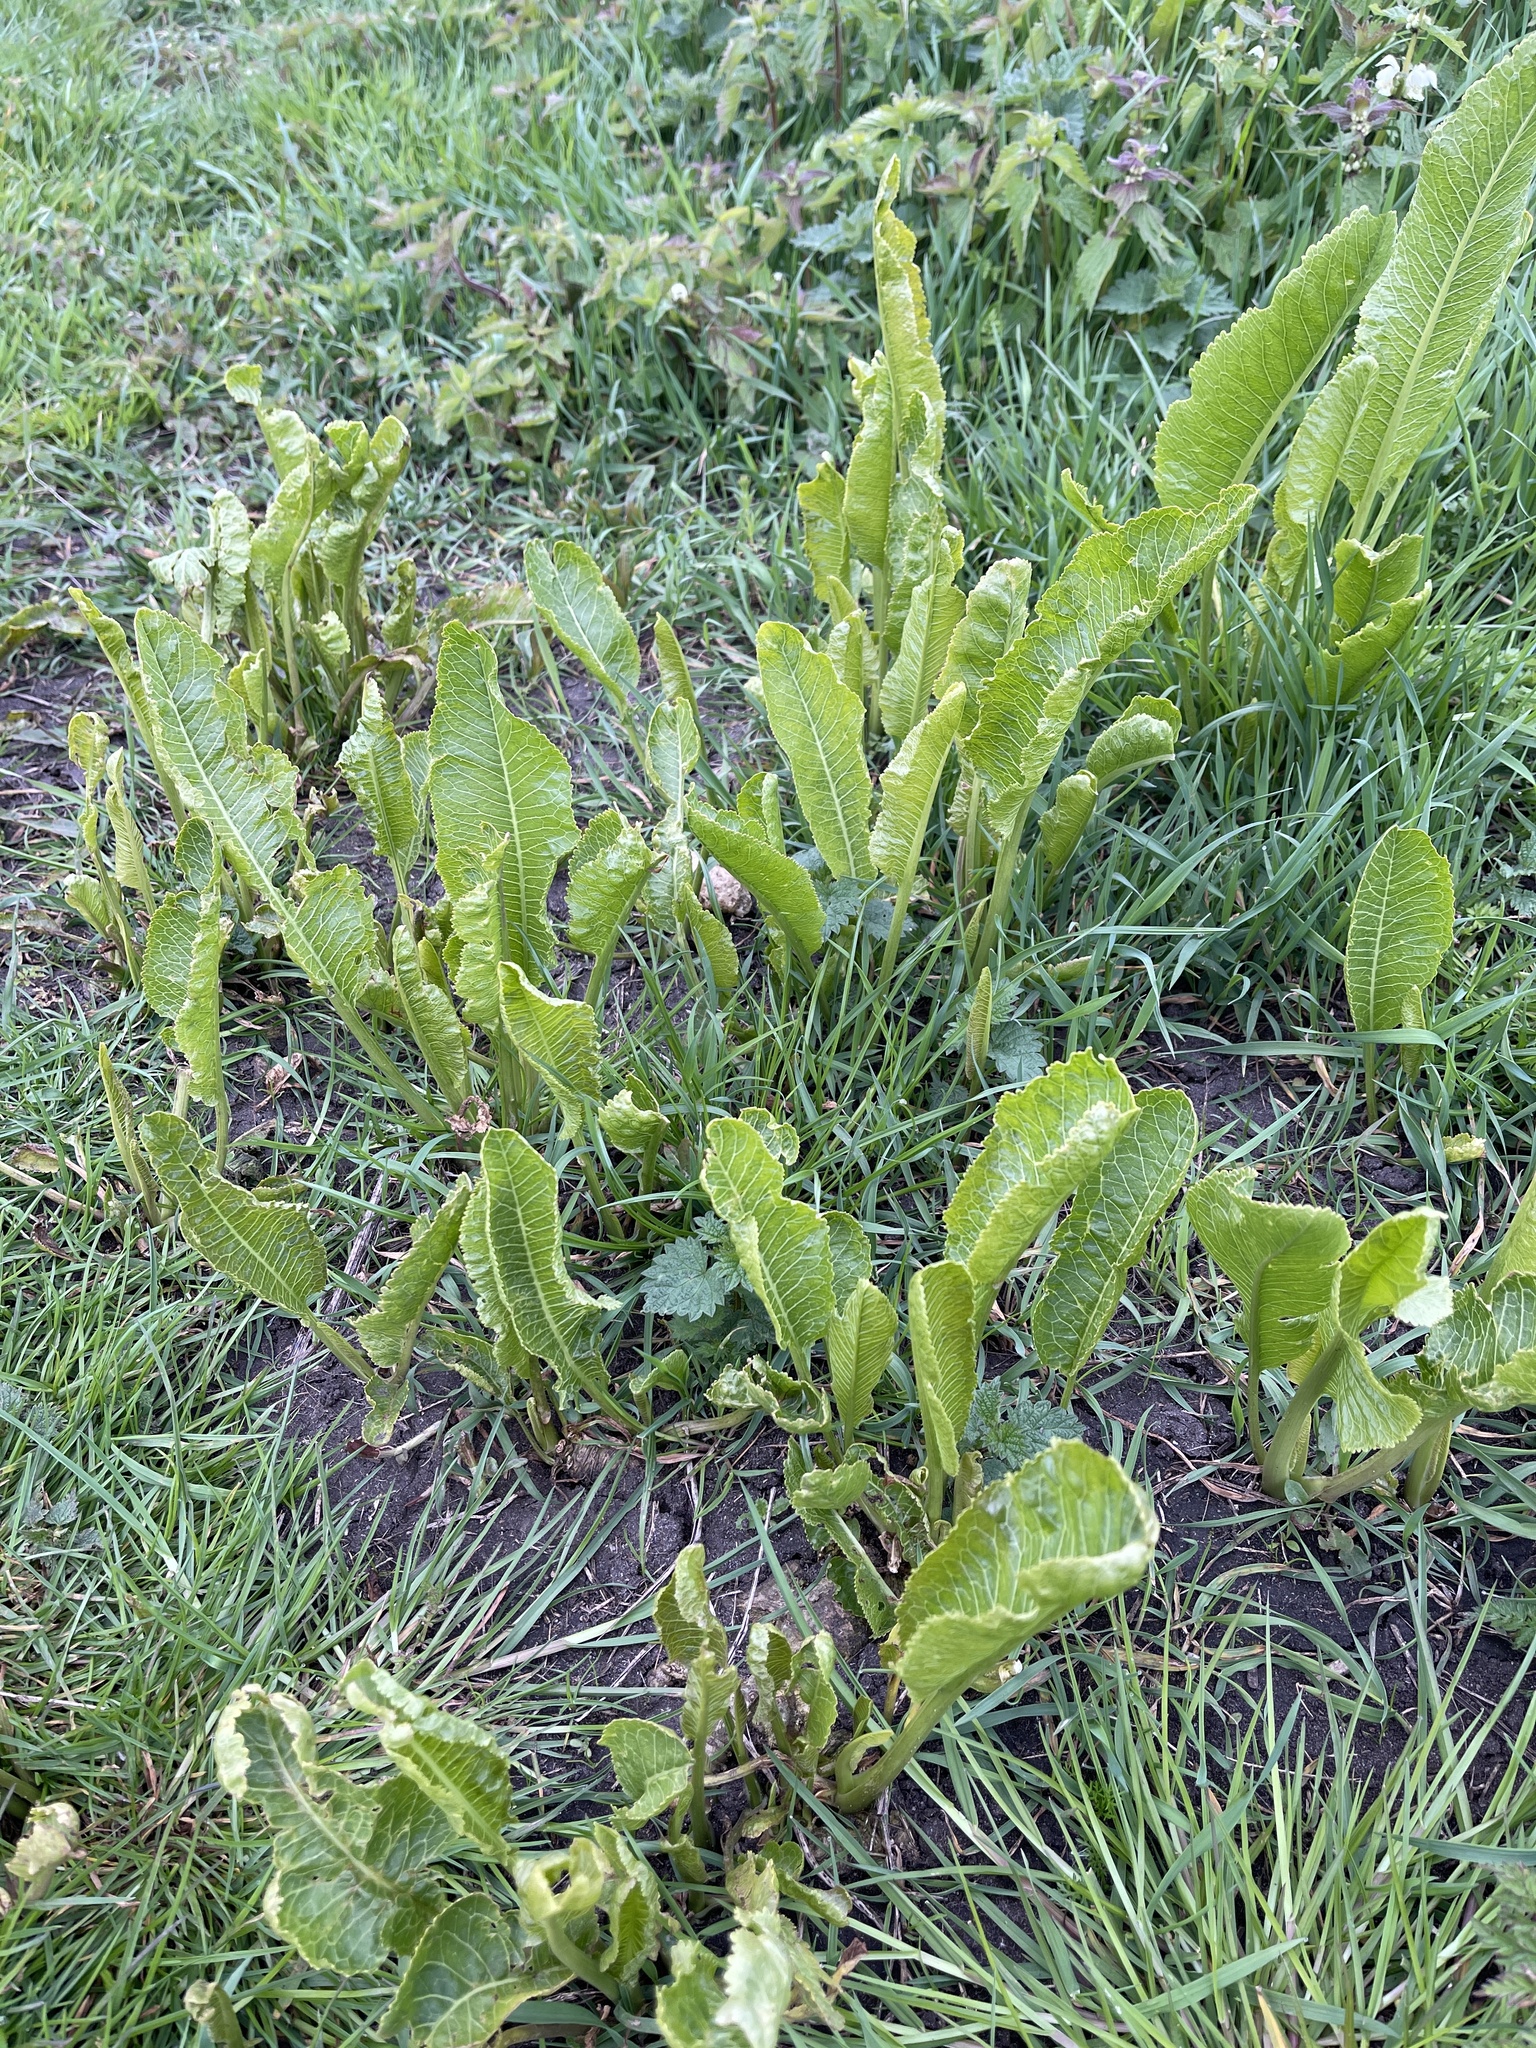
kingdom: Plantae
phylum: Tracheophyta
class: Magnoliopsida
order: Brassicales
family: Brassicaceae
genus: Armoracia
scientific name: Armoracia rusticana
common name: Horseradish
